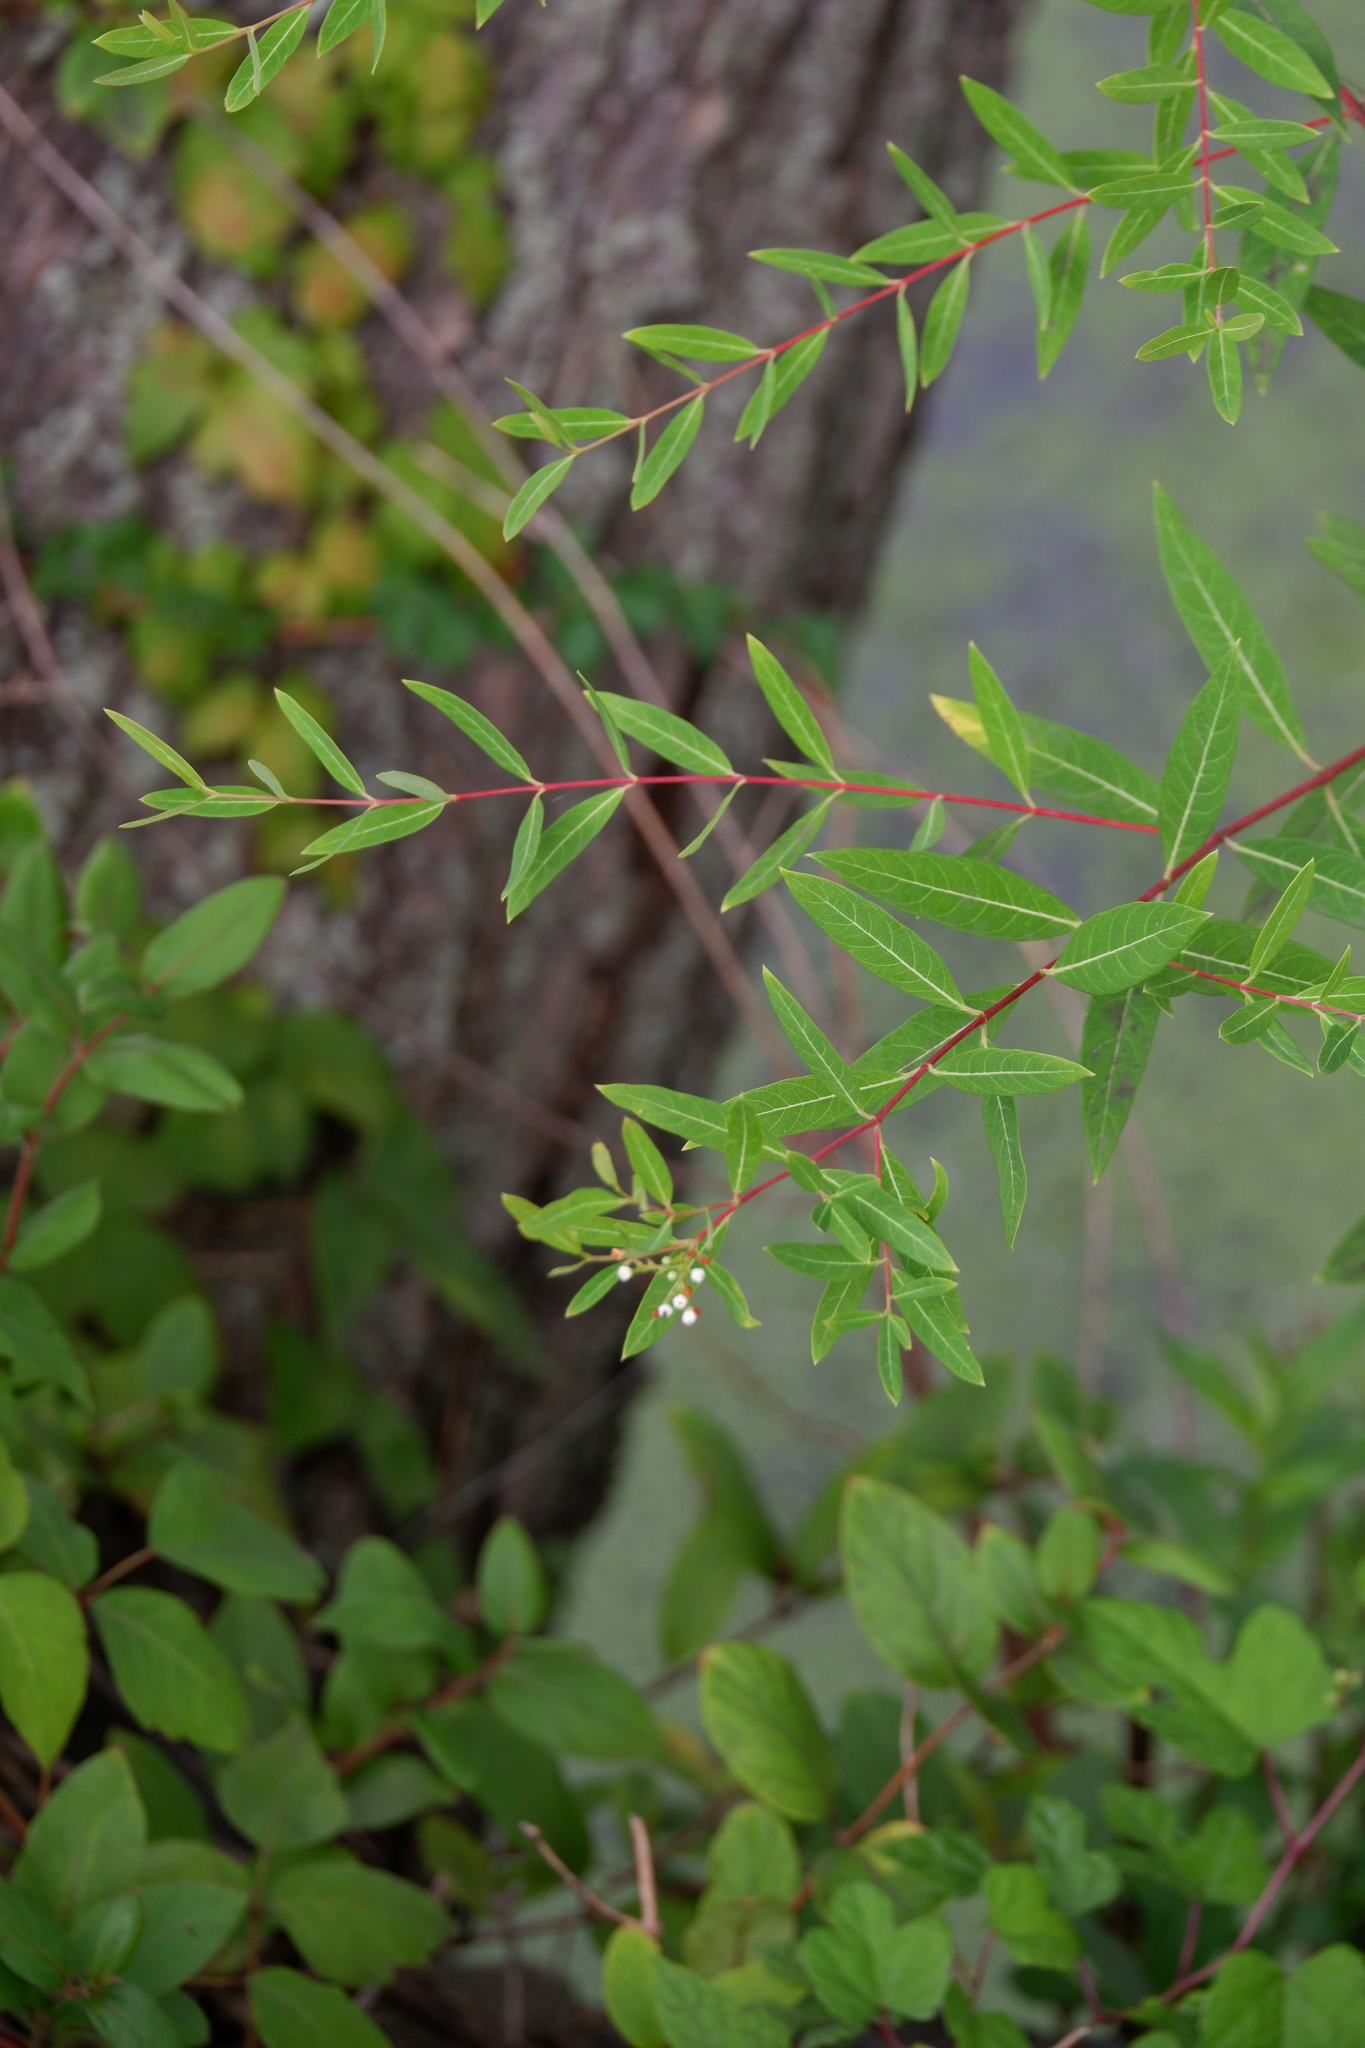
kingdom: Plantae
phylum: Tracheophyta
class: Magnoliopsida
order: Gentianales
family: Apocynaceae
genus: Apocynum
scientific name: Apocynum cannabinum
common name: Hemp dogbane
